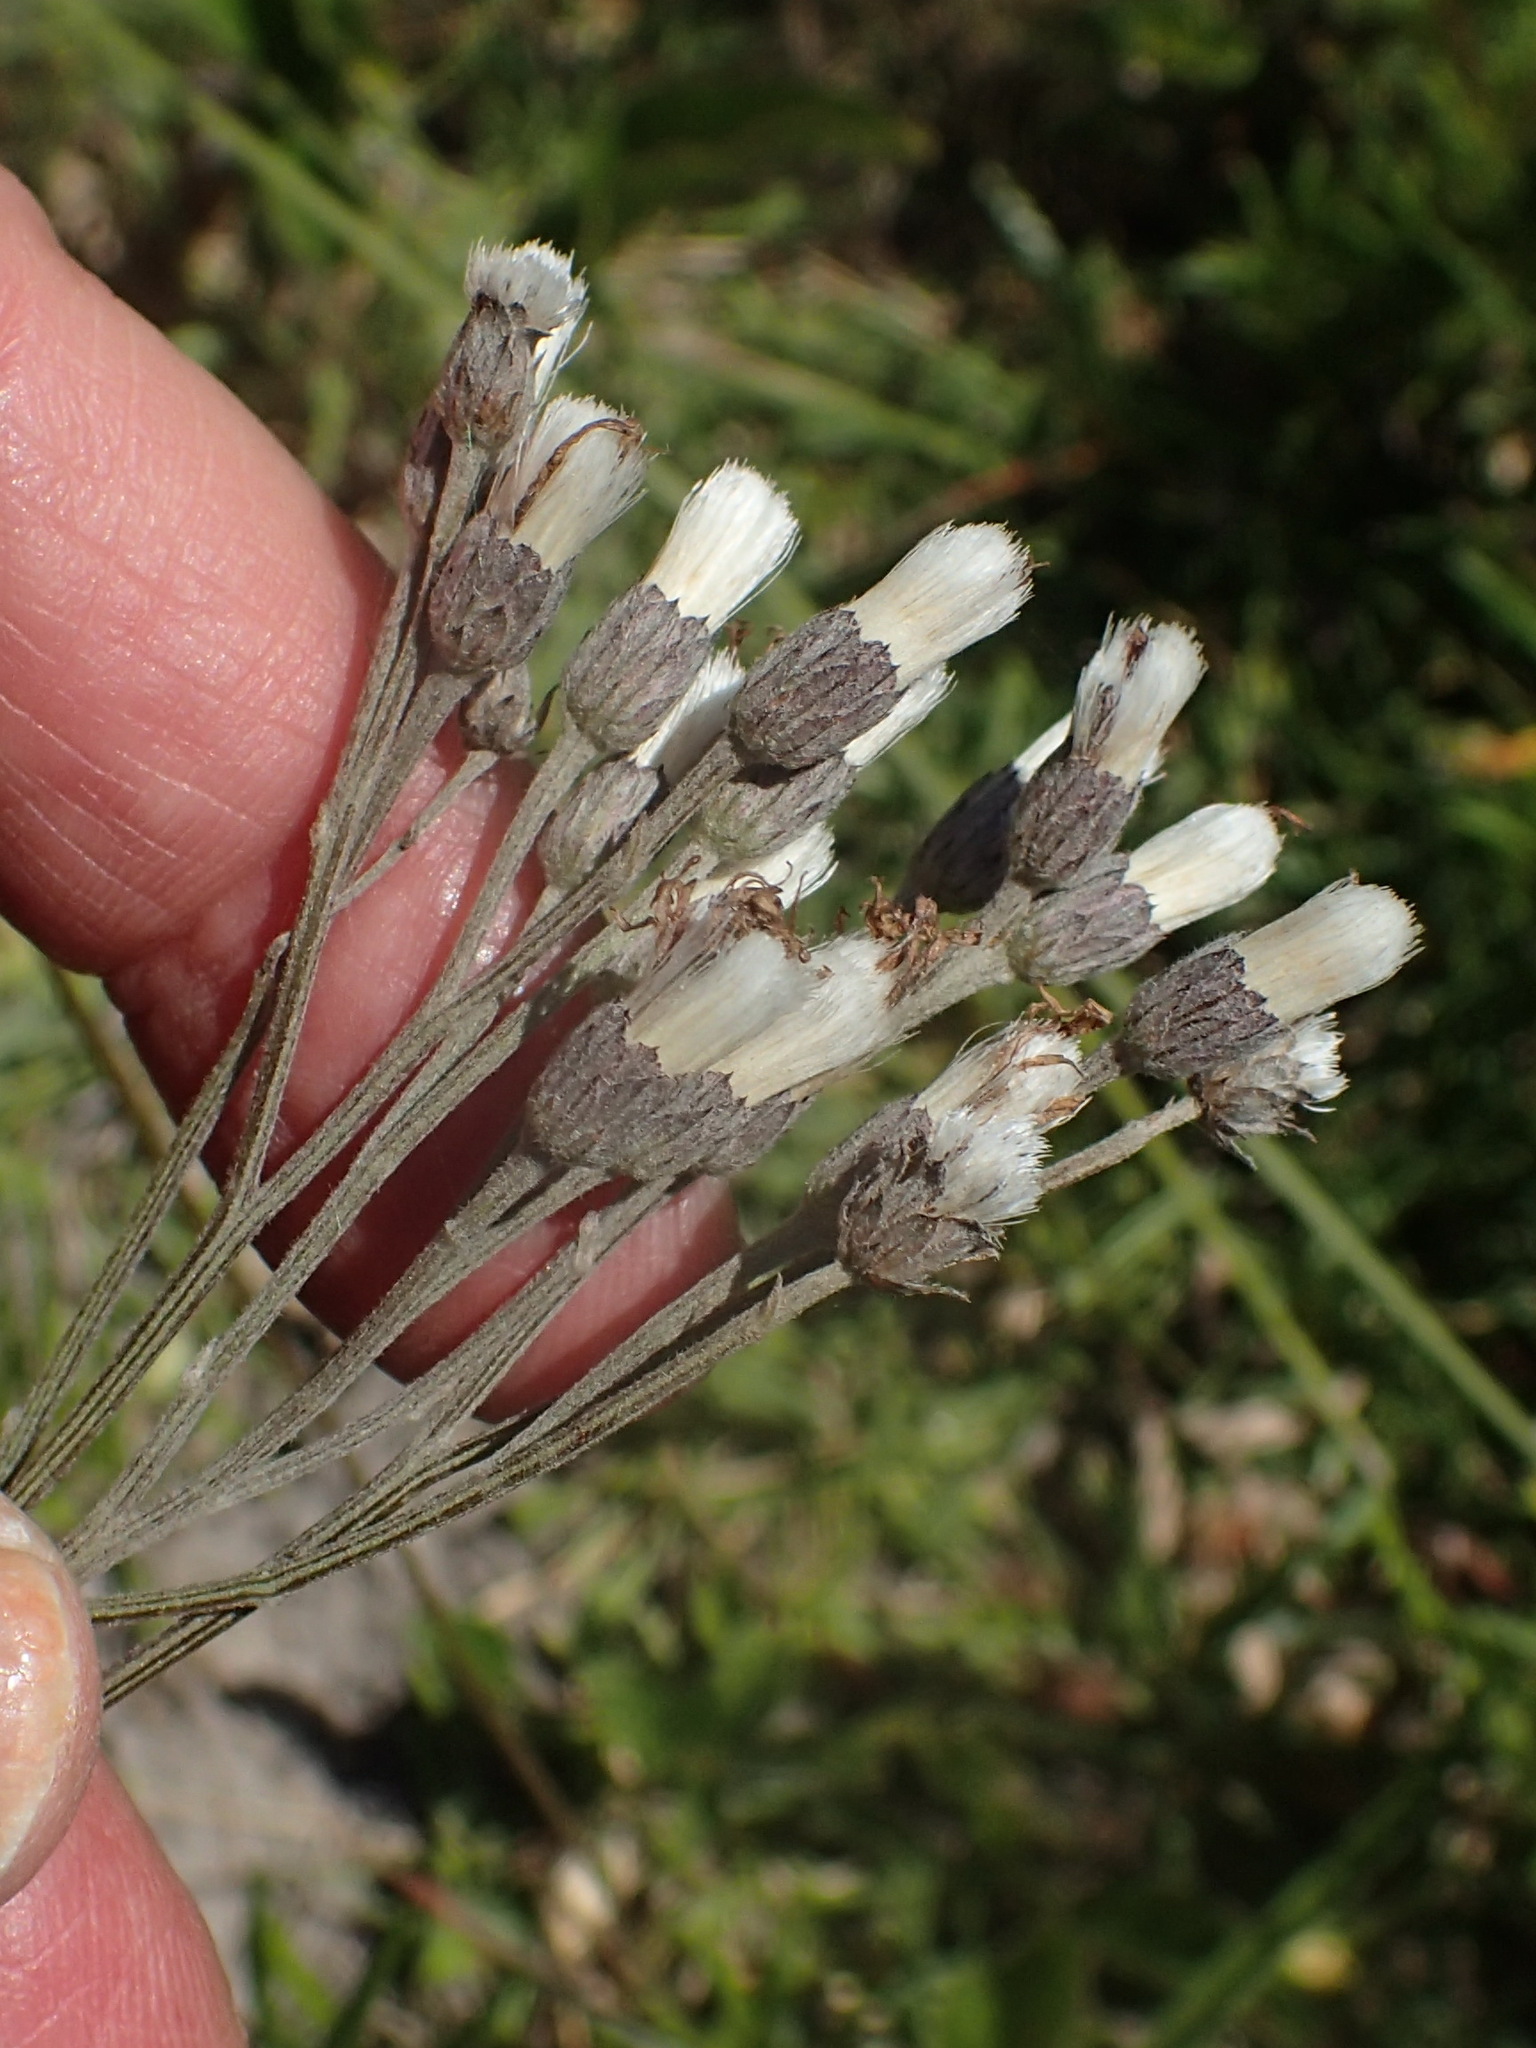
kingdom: Plantae
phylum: Tracheophyta
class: Magnoliopsida
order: Asterales
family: Asteraceae
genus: Hilliardiella
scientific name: Hilliardiella capensis
